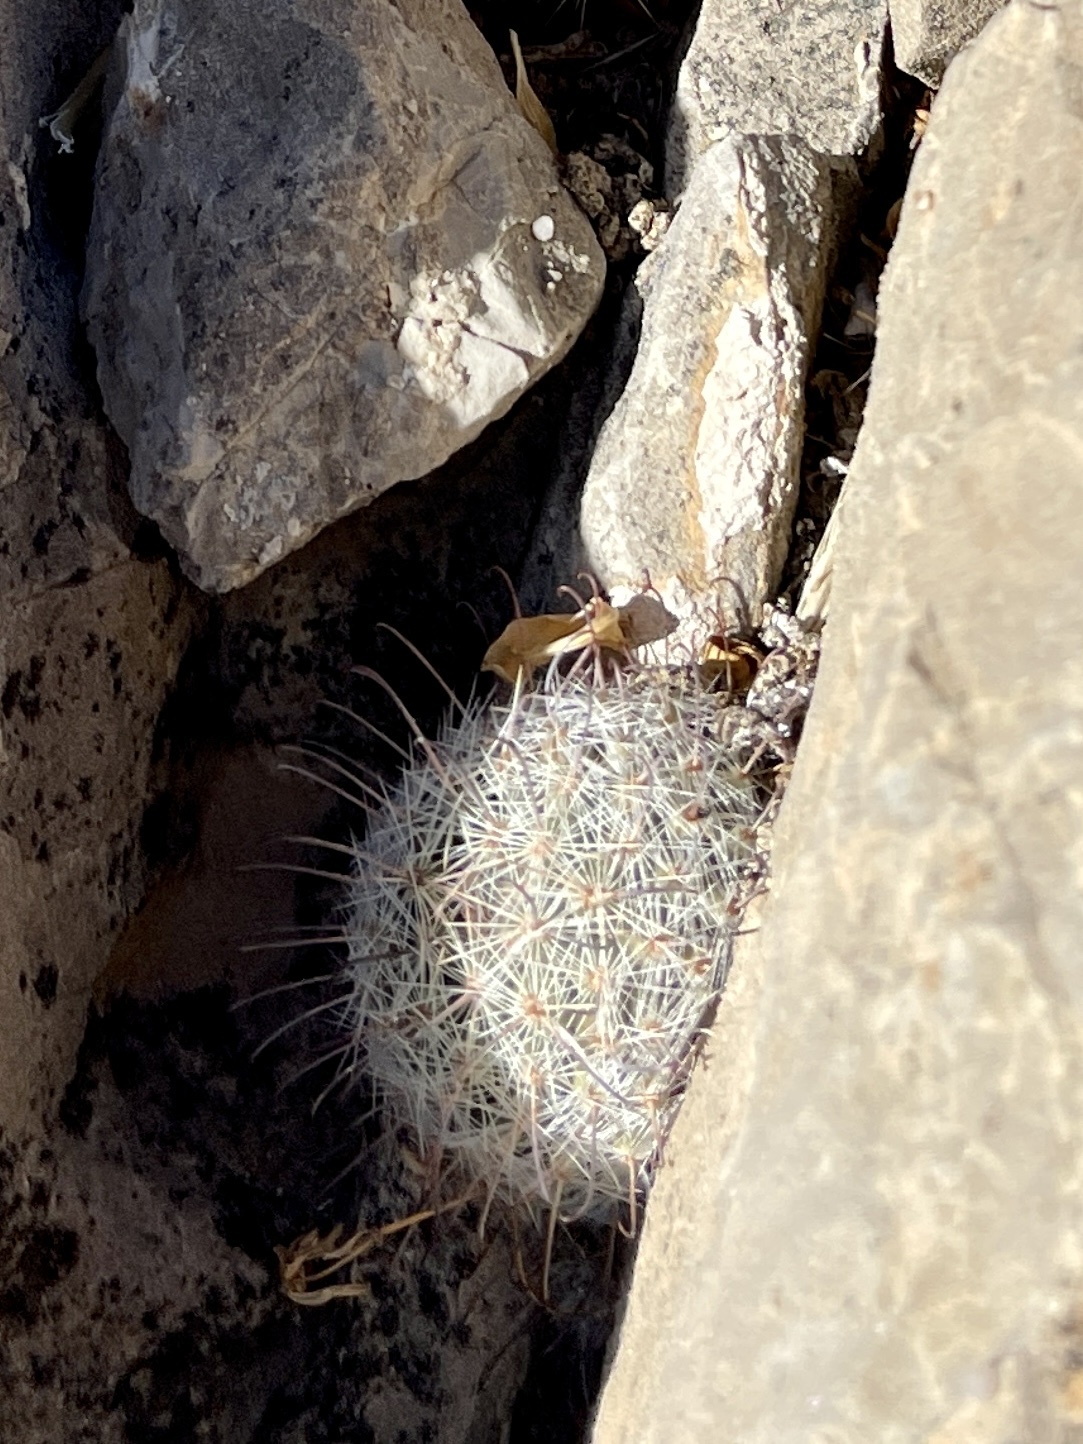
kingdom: Plantae
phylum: Tracheophyta
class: Magnoliopsida
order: Caryophyllales
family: Cactaceae
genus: Cochemiea
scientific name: Cochemiea grahamii
